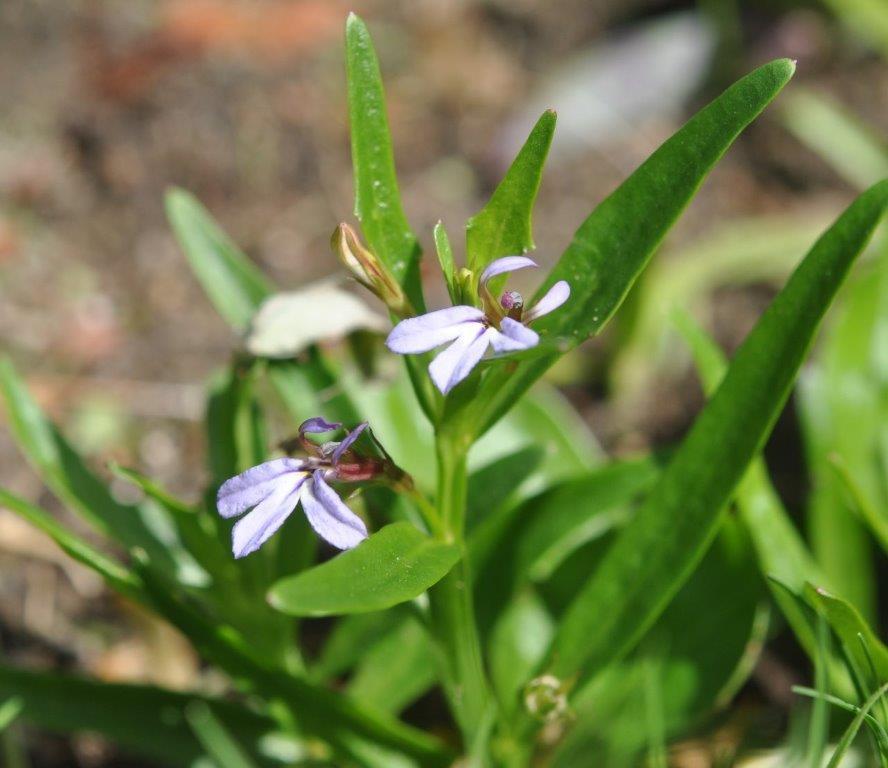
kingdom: Plantae
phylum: Tracheophyta
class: Magnoliopsida
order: Asterales
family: Campanulaceae
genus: Lobelia
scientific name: Lobelia anceps
